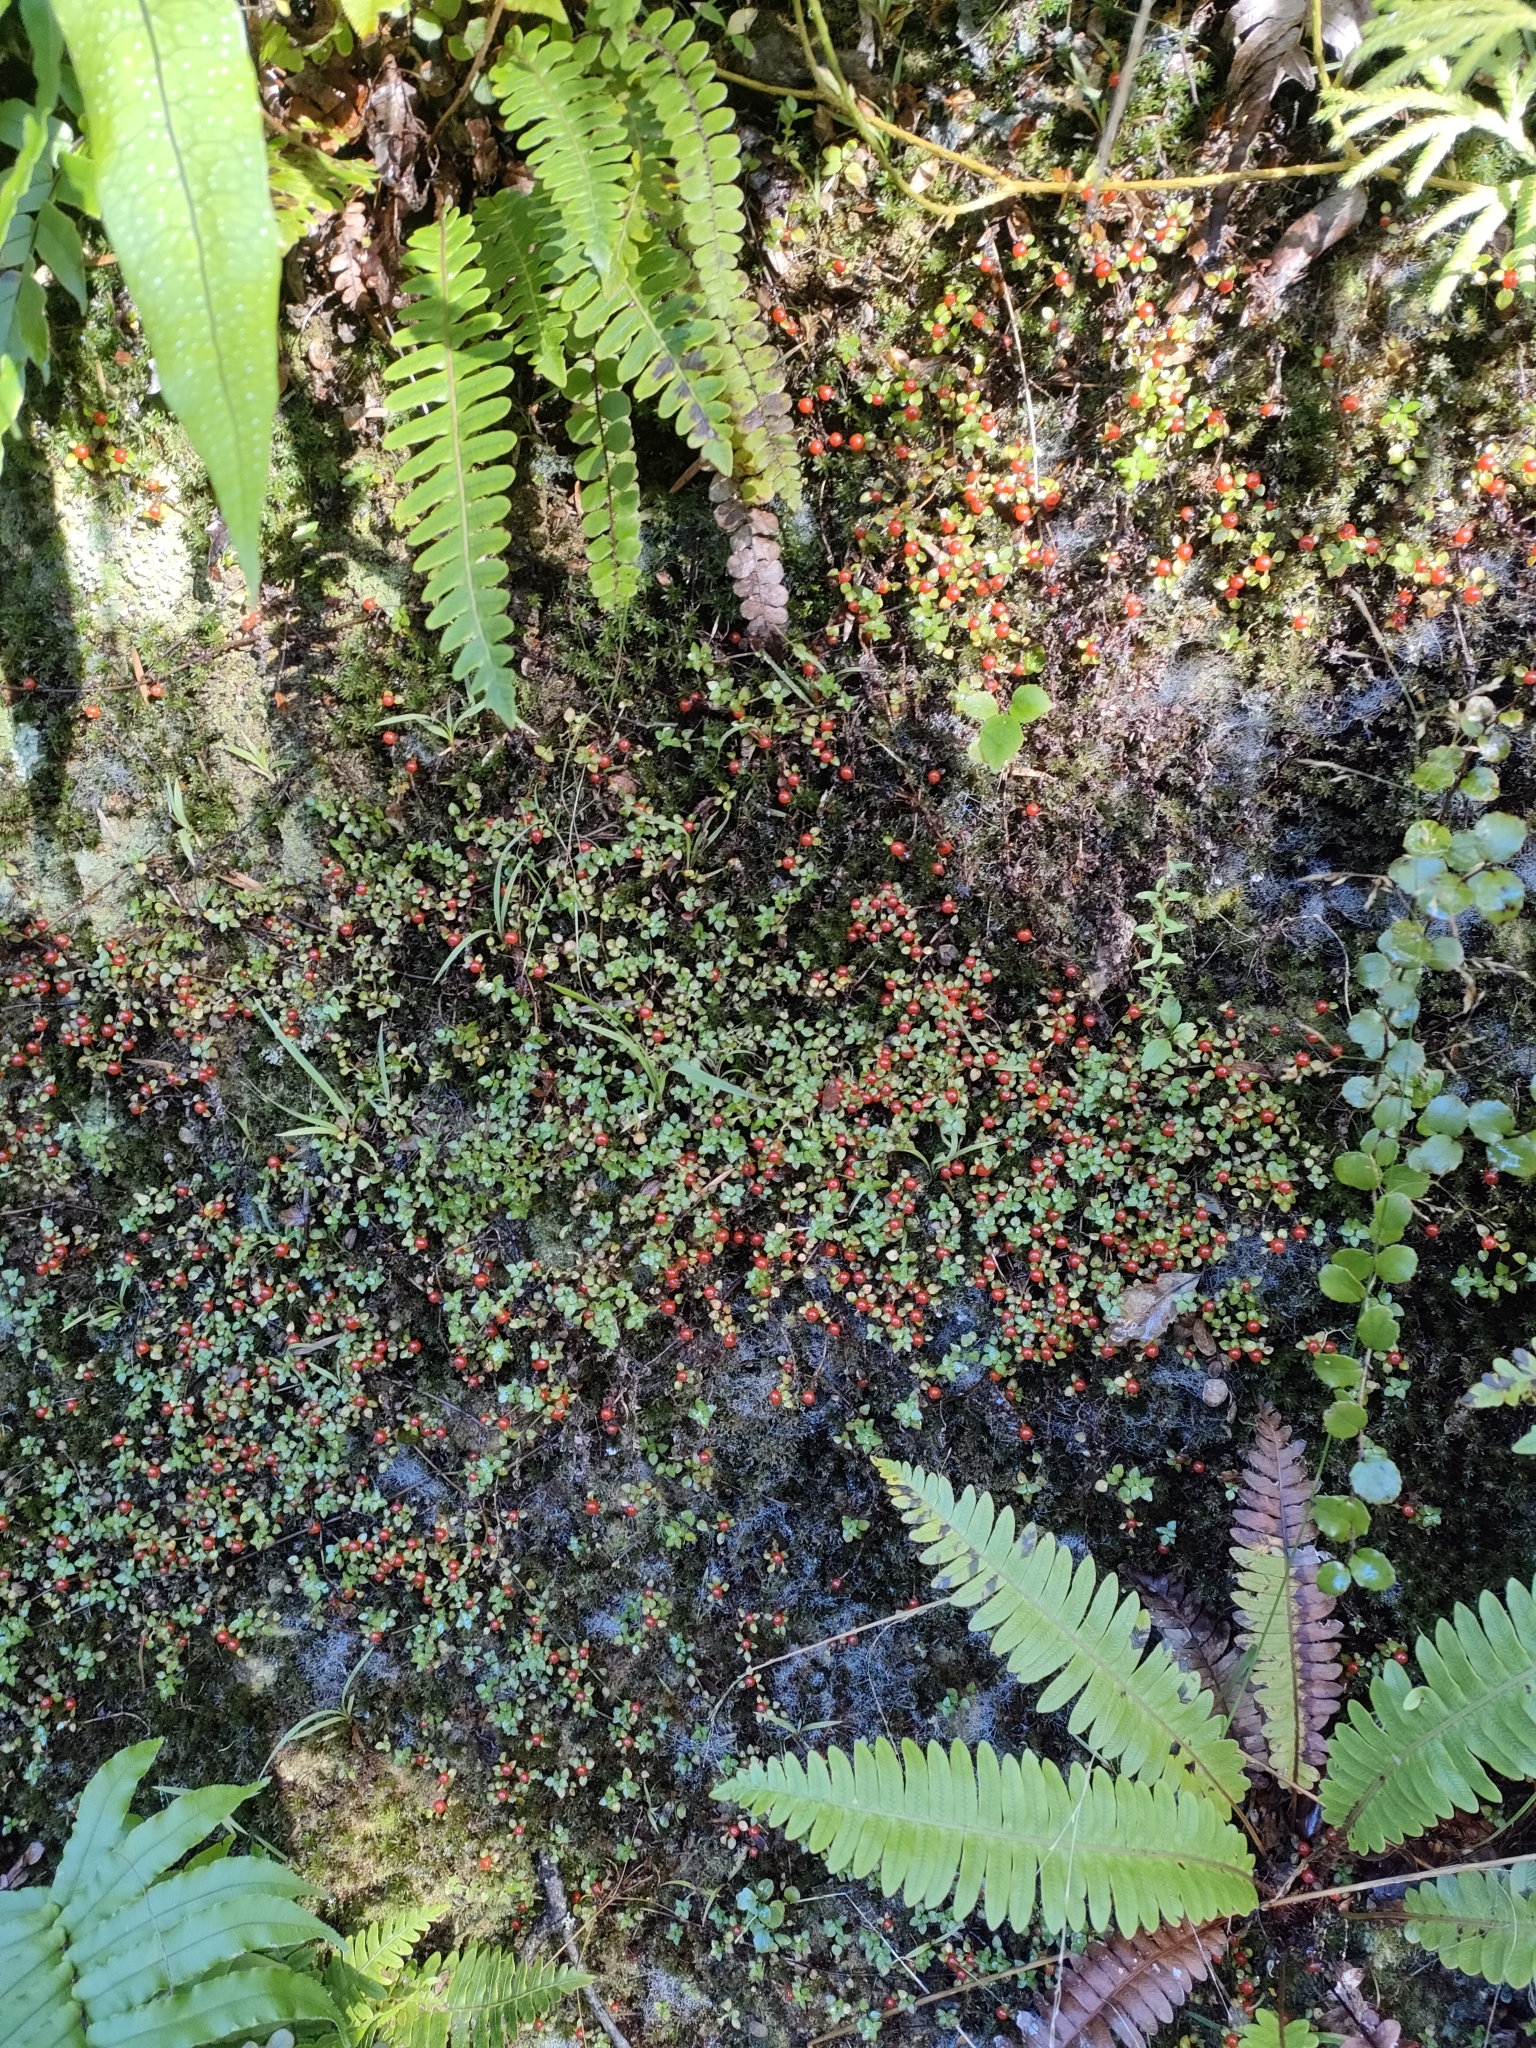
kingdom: Plantae
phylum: Tracheophyta
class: Magnoliopsida
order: Gentianales
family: Rubiaceae
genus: Nertera
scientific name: Nertera granadensis
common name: Beadplant
